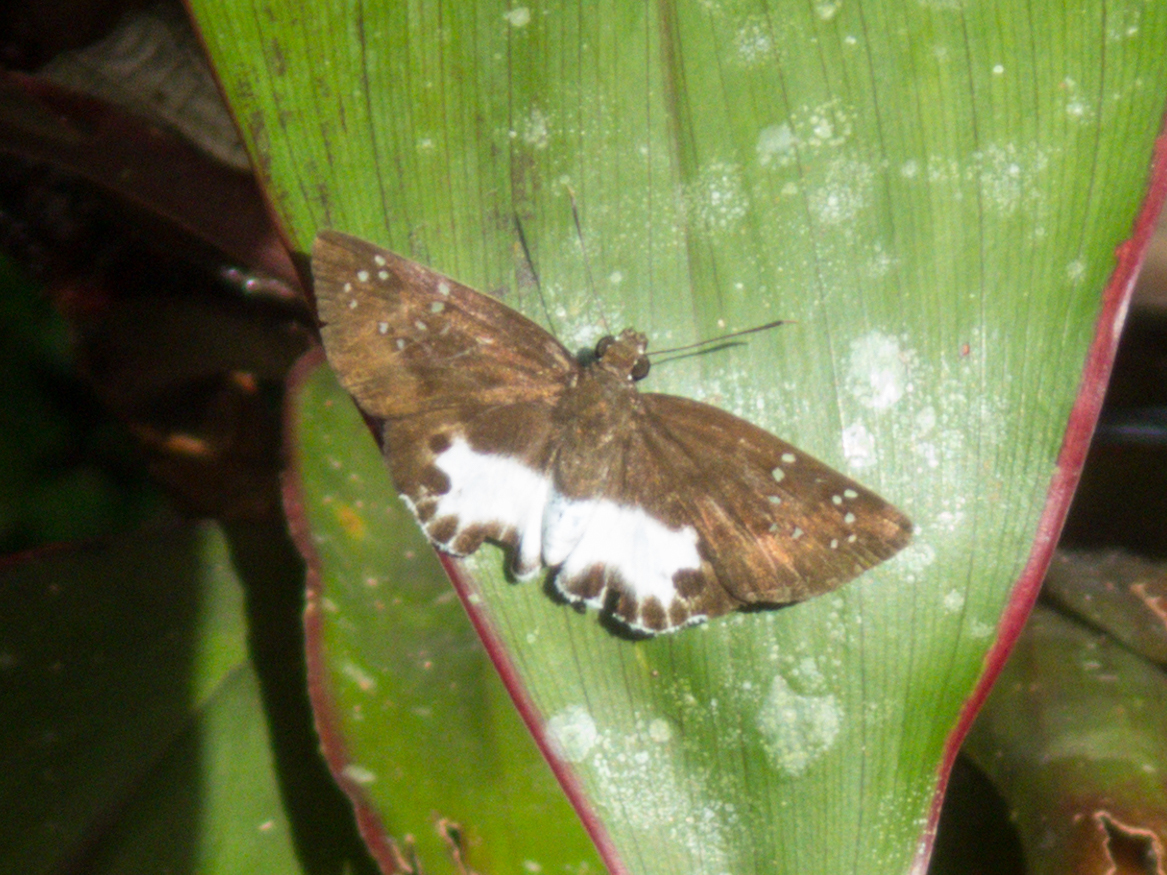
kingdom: Animalia
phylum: Arthropoda
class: Insecta
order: Lepidoptera
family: Hesperiidae
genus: Tagiades
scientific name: Tagiades litigiosa
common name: Water snow flat
